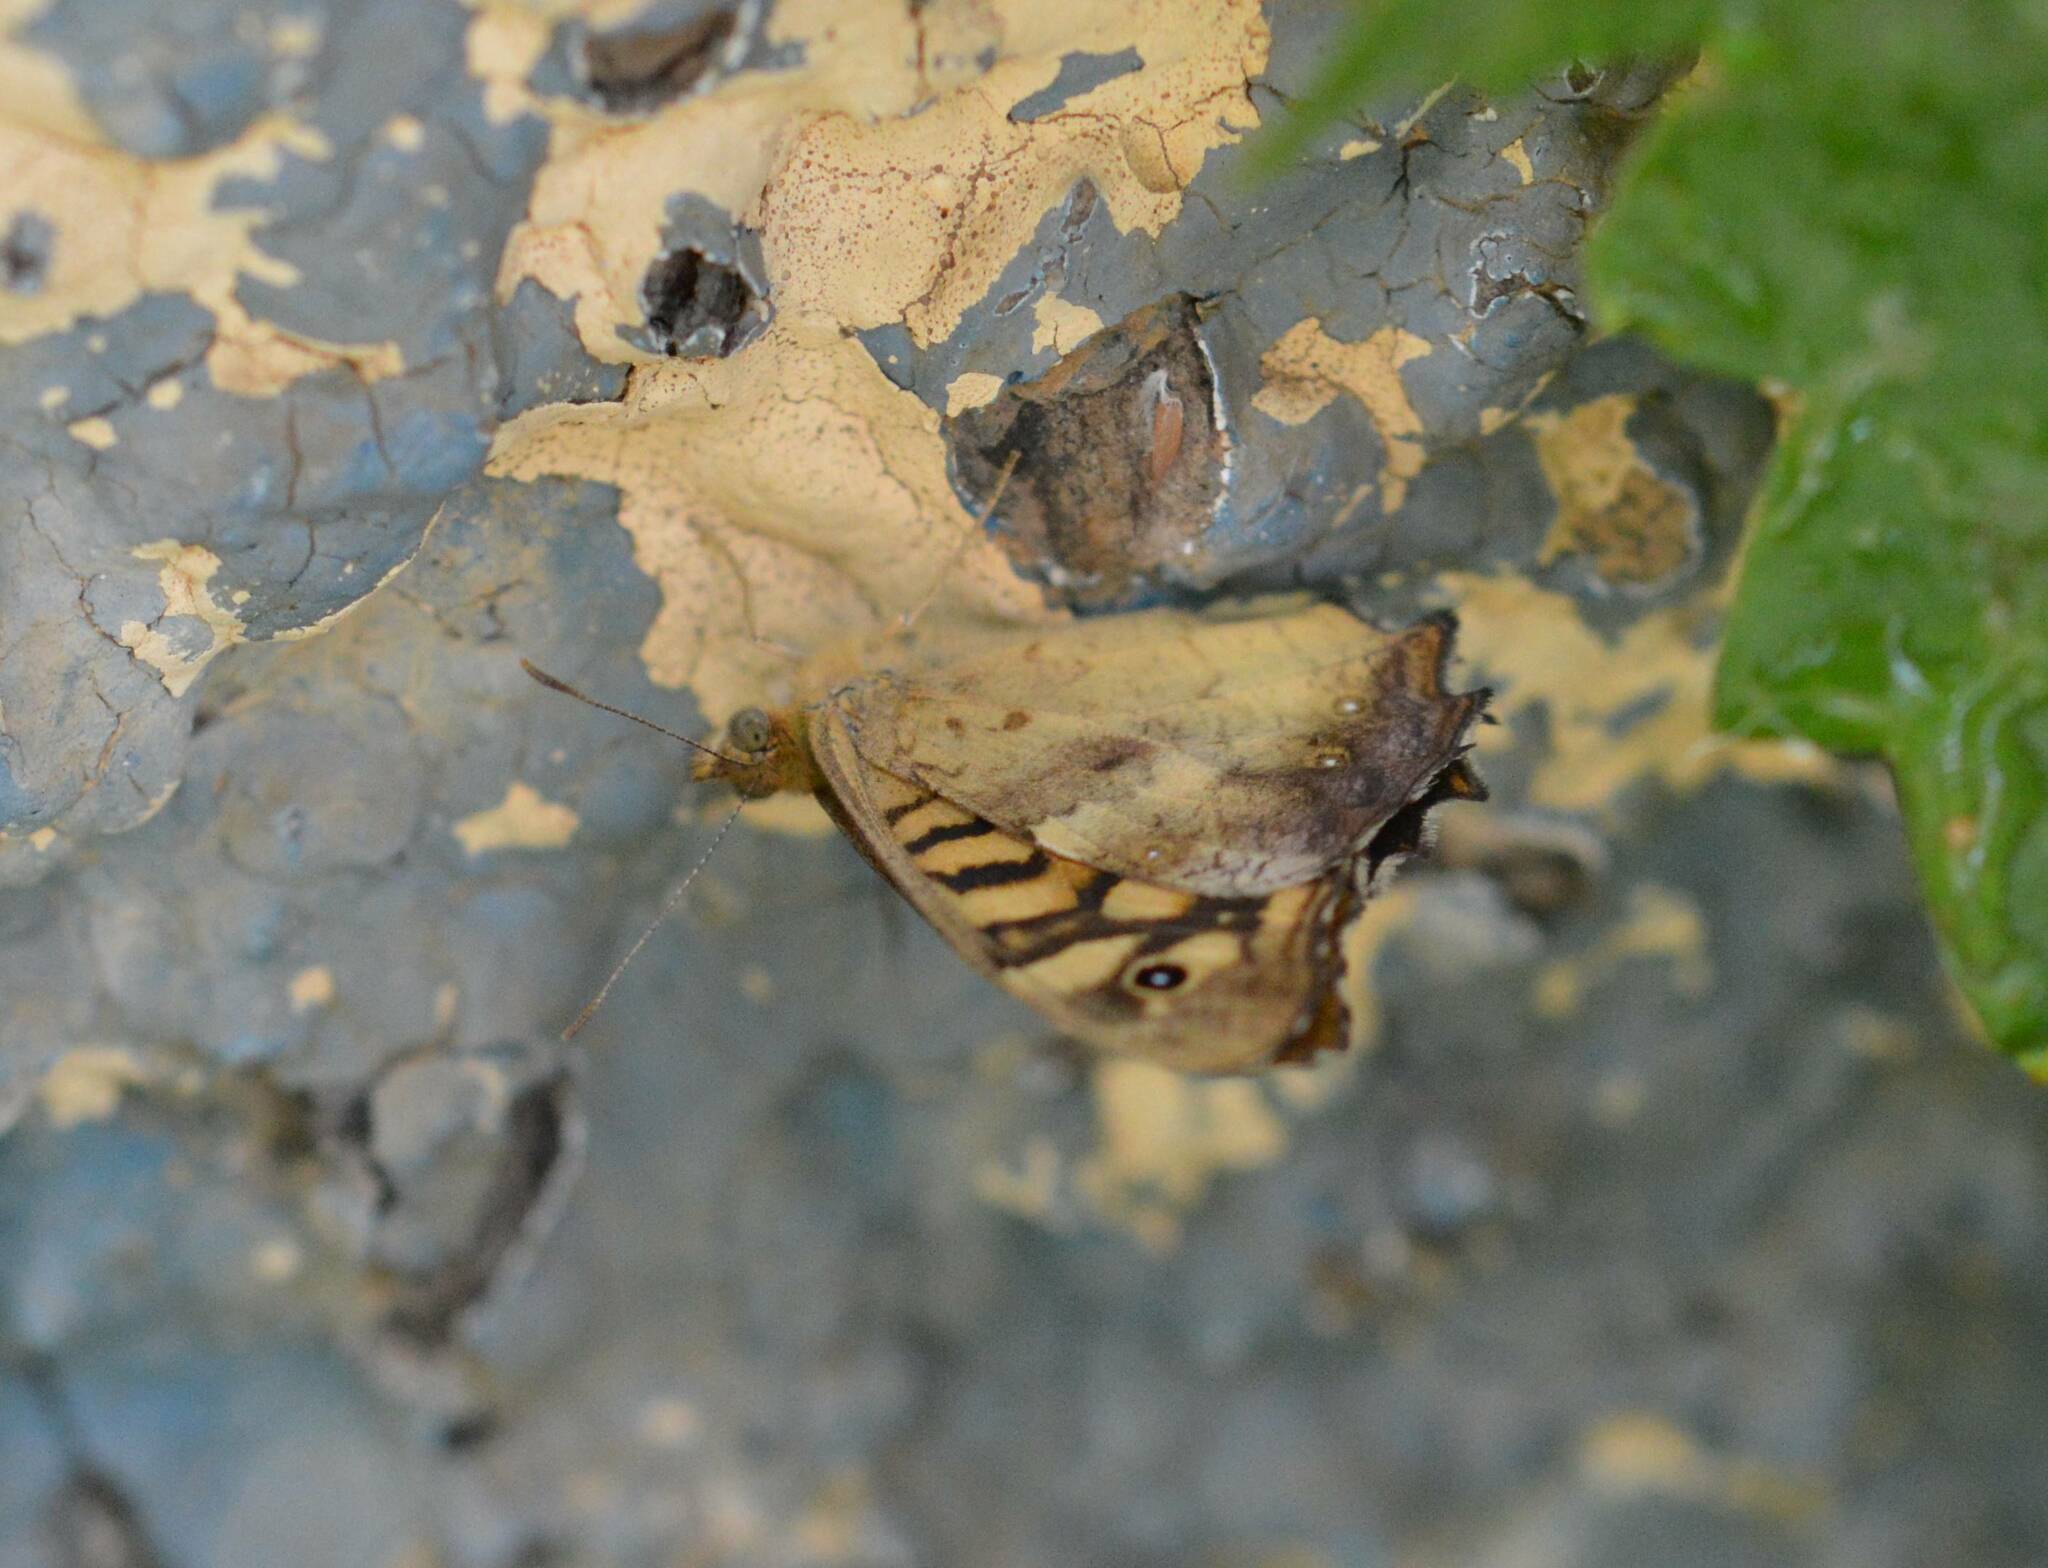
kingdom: Animalia
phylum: Arthropoda
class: Insecta
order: Lepidoptera
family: Nymphalidae
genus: Pararge
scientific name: Pararge aegeria
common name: Speckled wood
